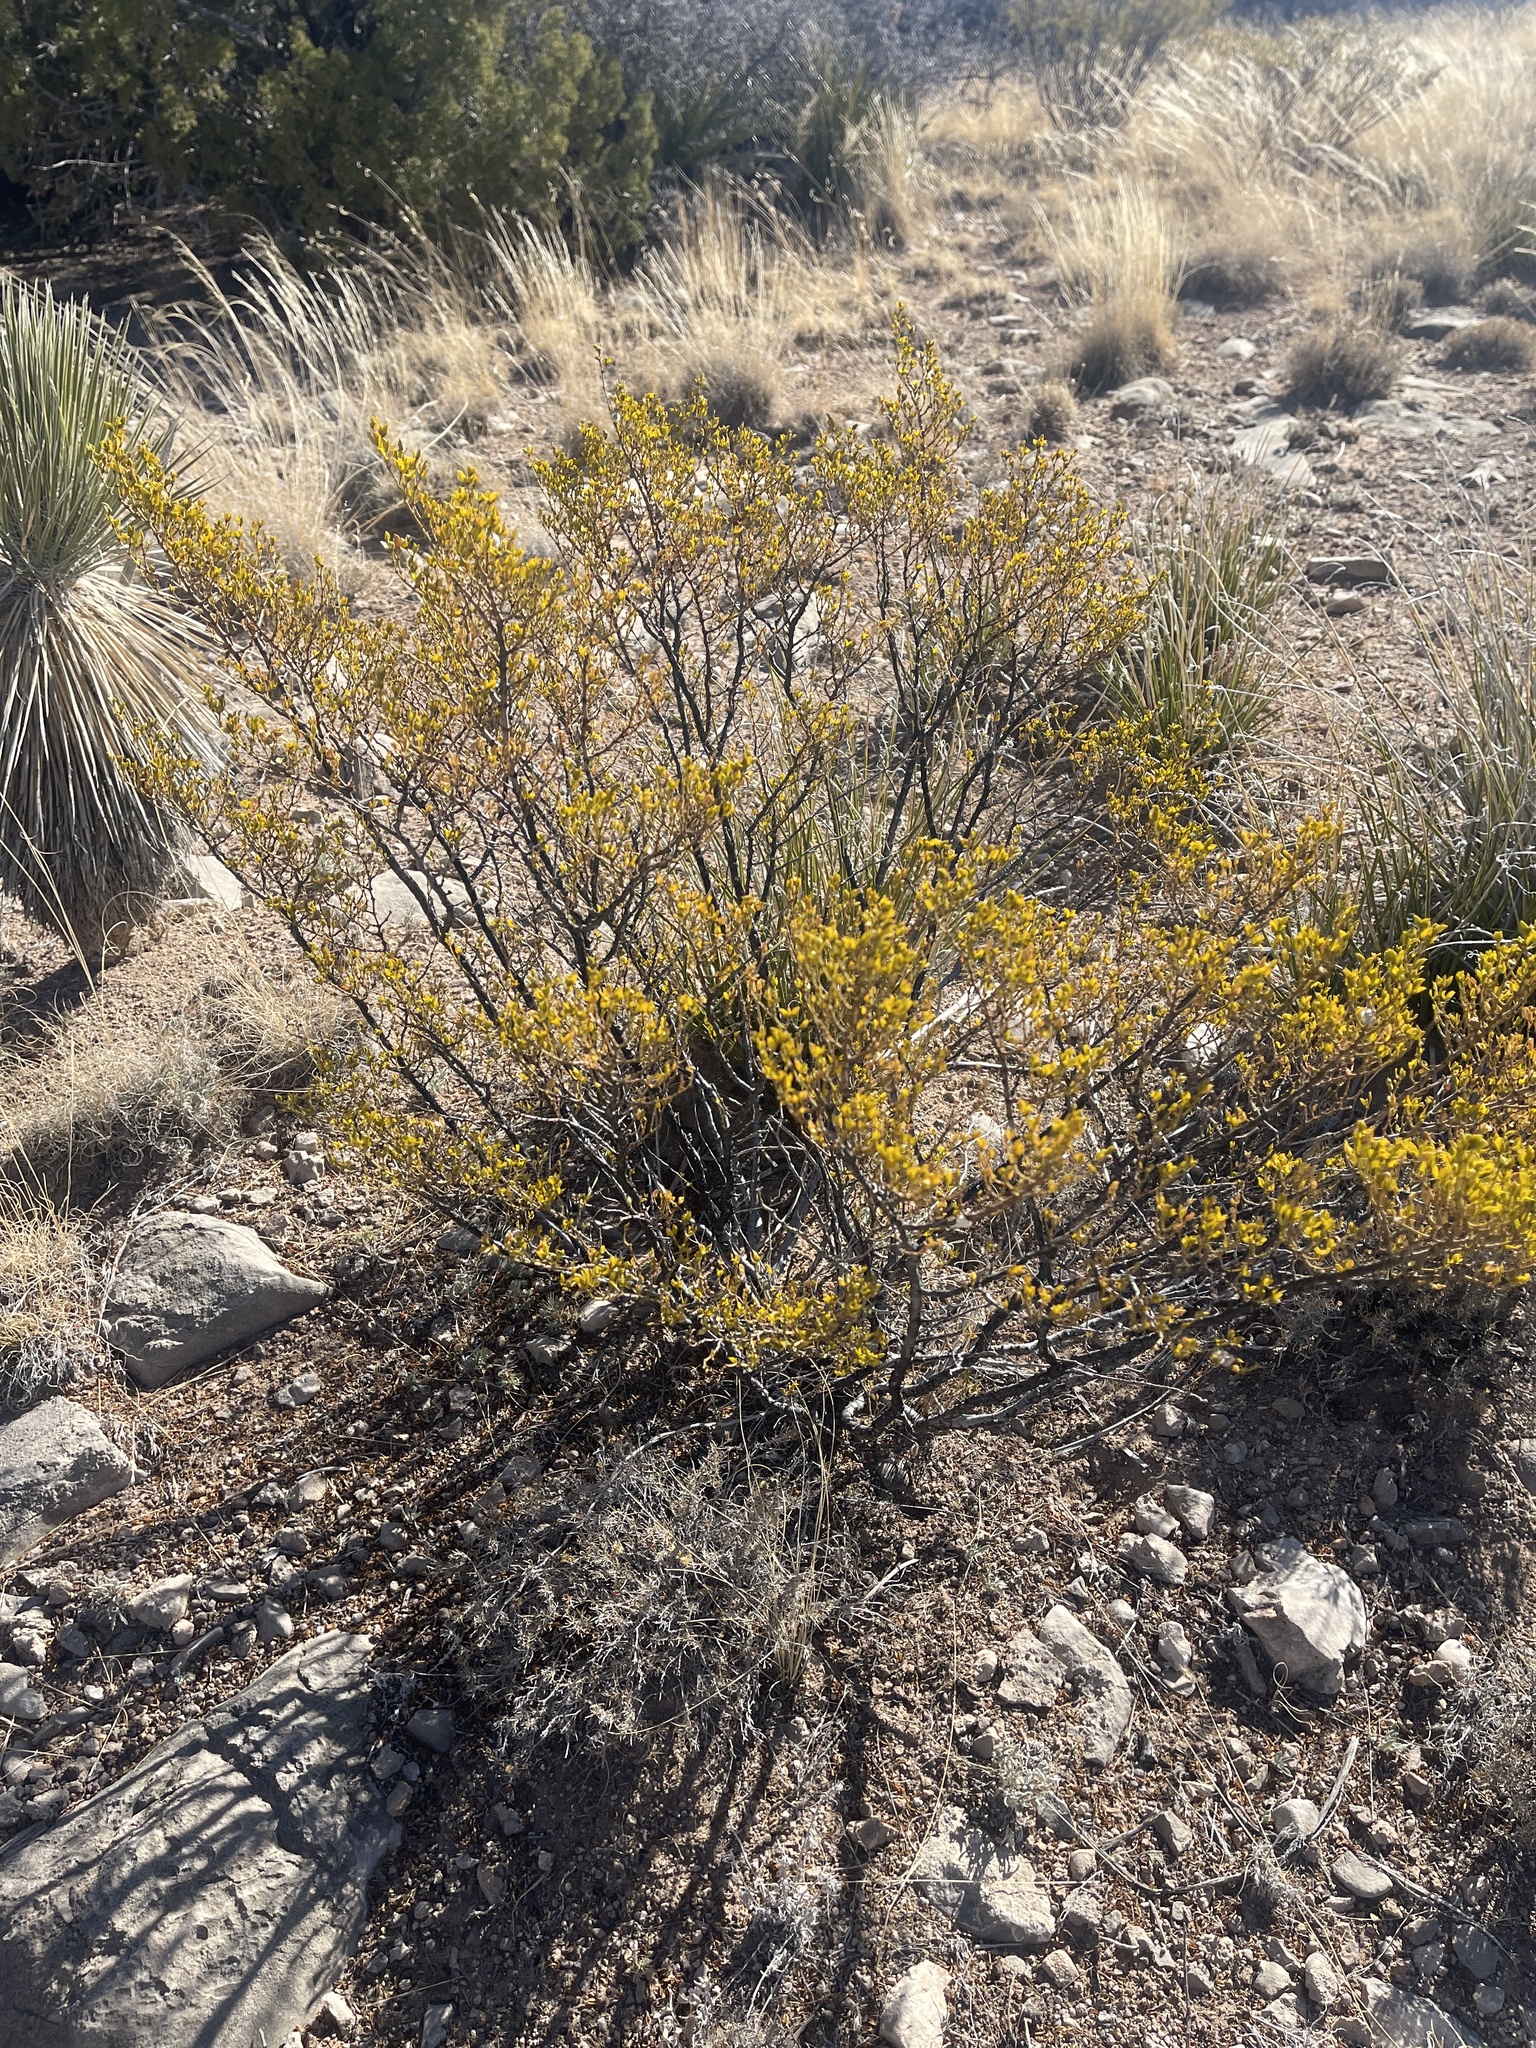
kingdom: Plantae
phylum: Tracheophyta
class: Magnoliopsida
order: Zygophyllales
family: Zygophyllaceae
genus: Larrea
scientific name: Larrea tridentata
